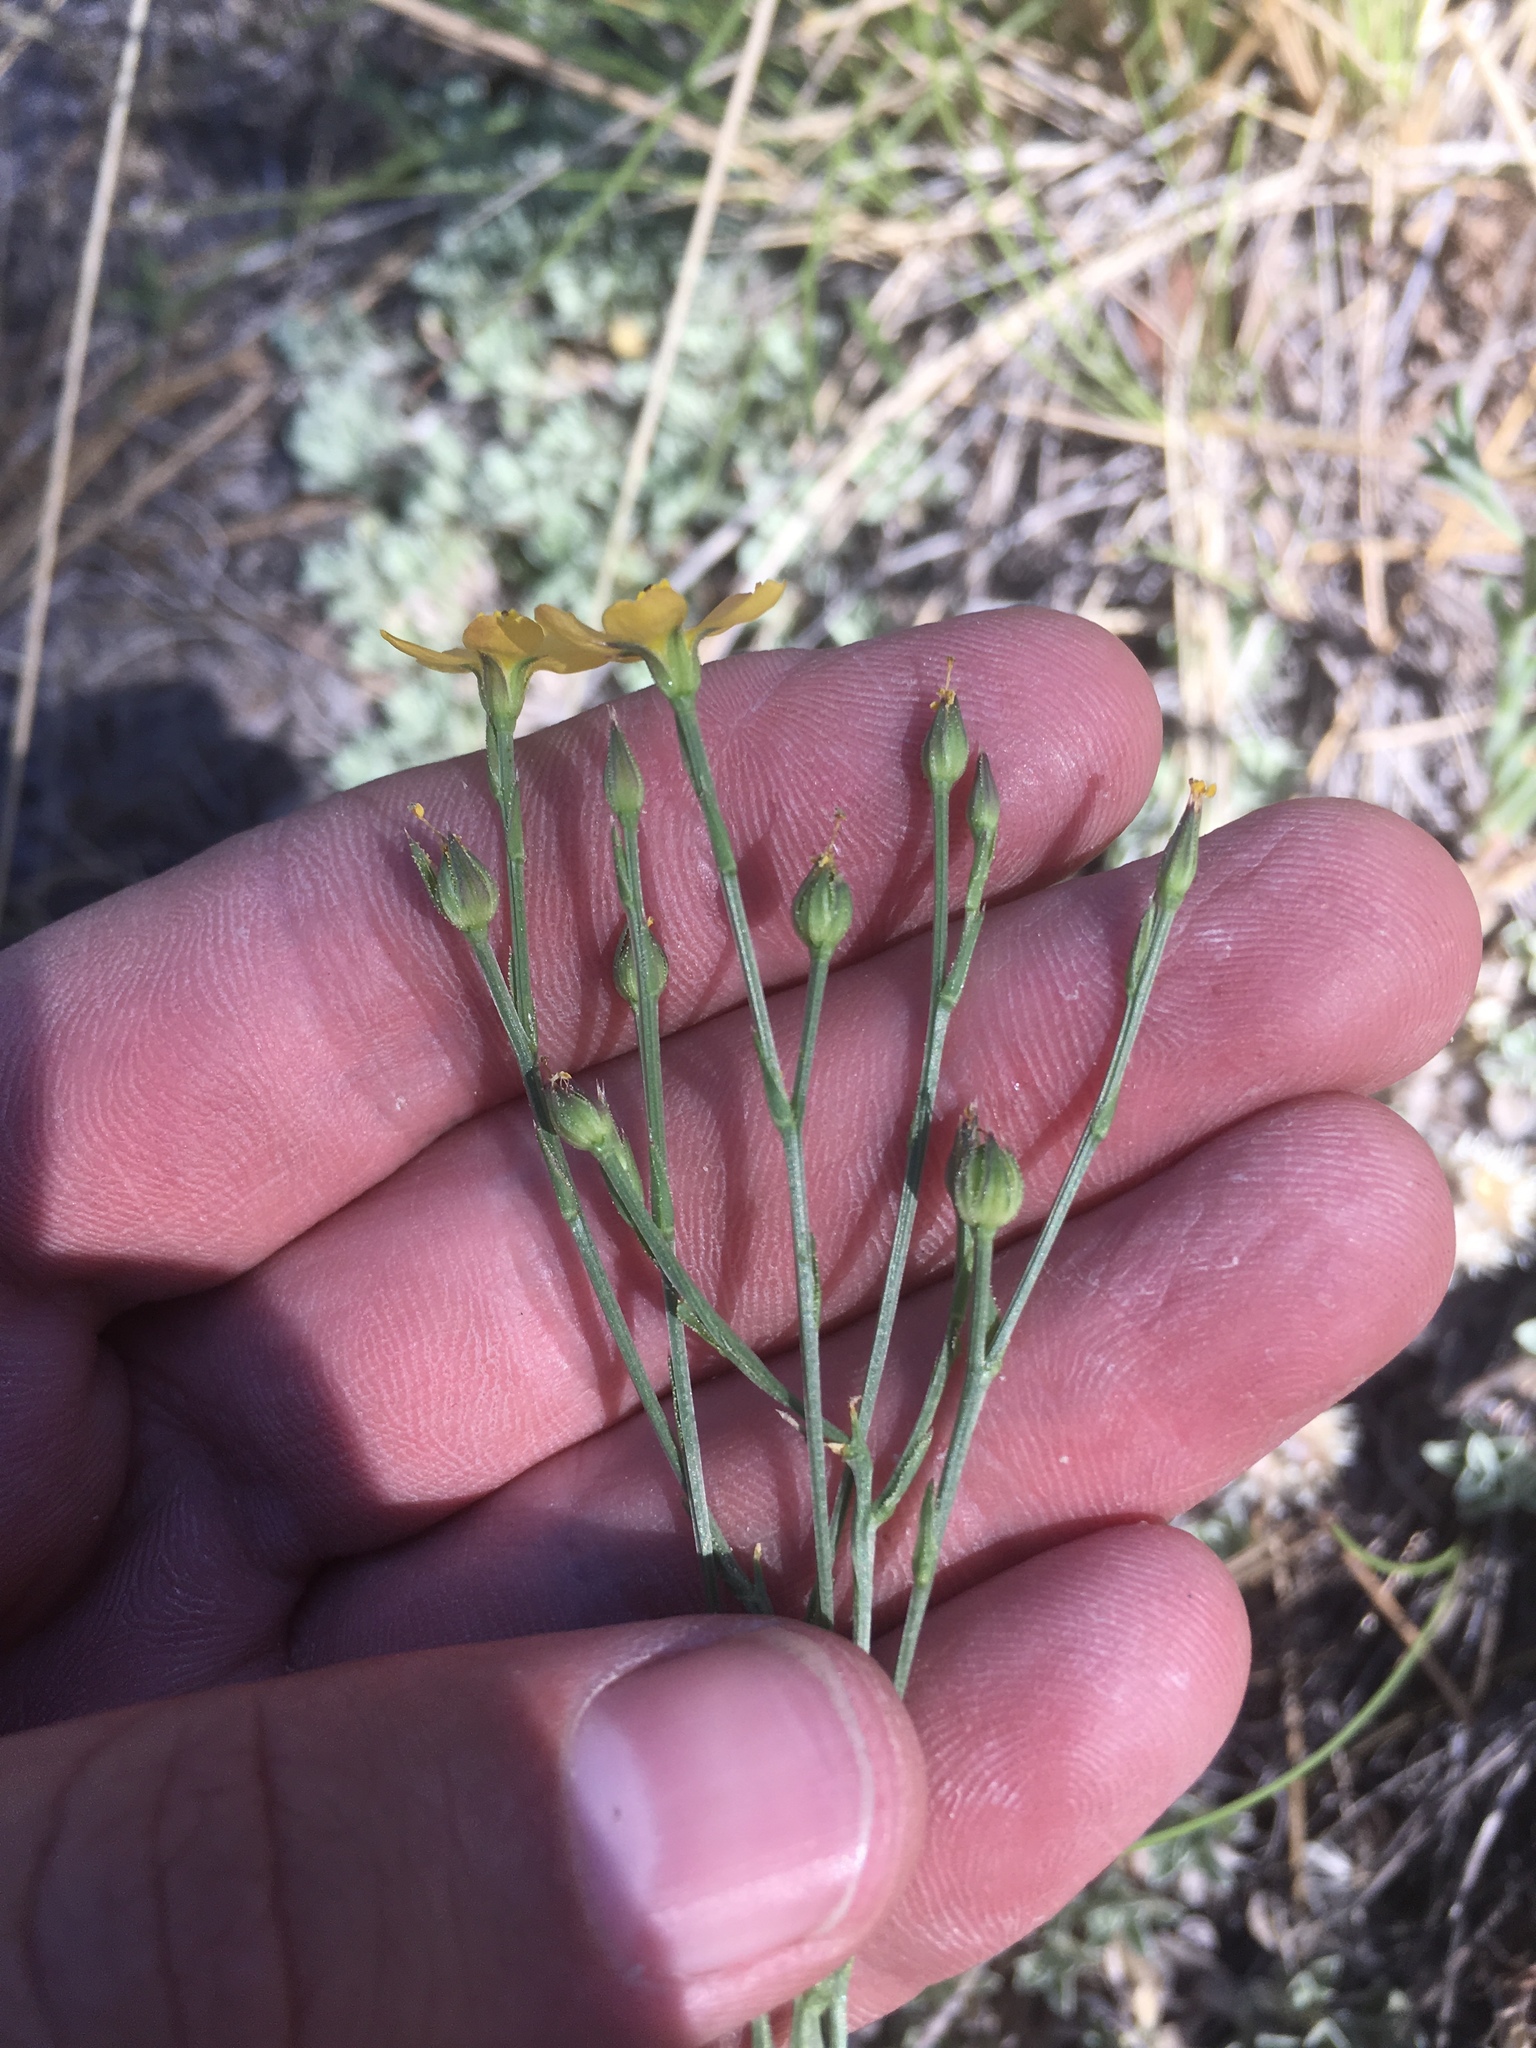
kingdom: Plantae
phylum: Tracheophyta
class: Magnoliopsida
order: Malpighiales
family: Linaceae
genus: Linum
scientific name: Linum australe
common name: Small yellow flax
